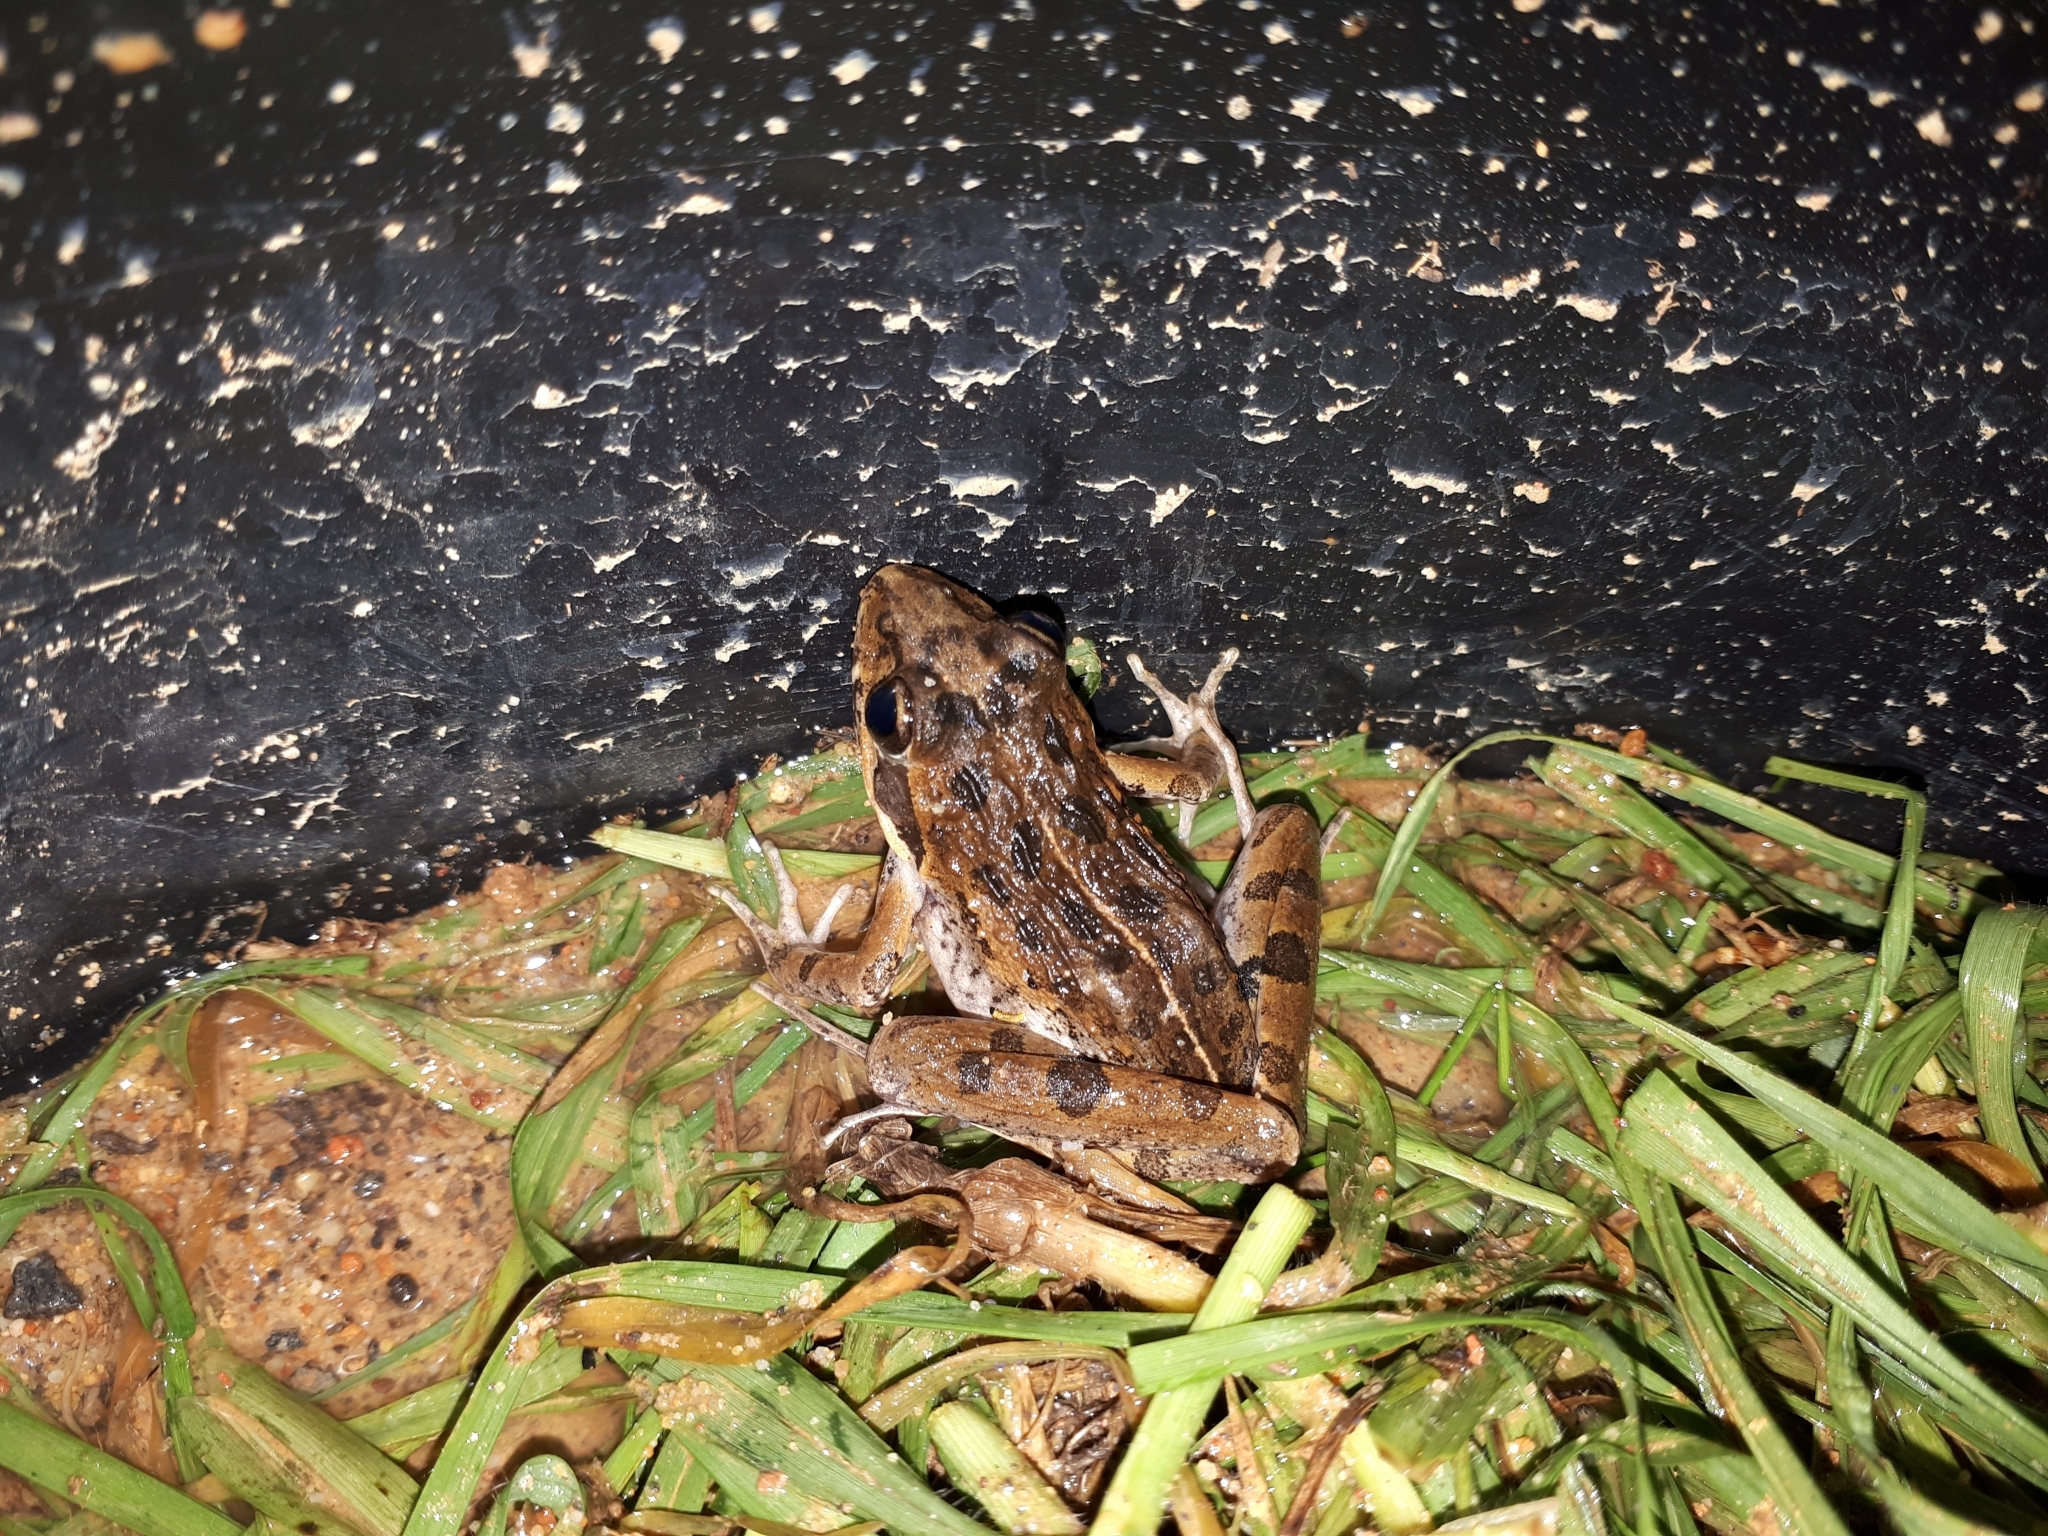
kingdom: Animalia
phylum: Chordata
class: Amphibia
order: Anura
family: Pyxicephalidae
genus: Strongylopus
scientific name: Strongylopus grayii
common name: Gray's stream frog
